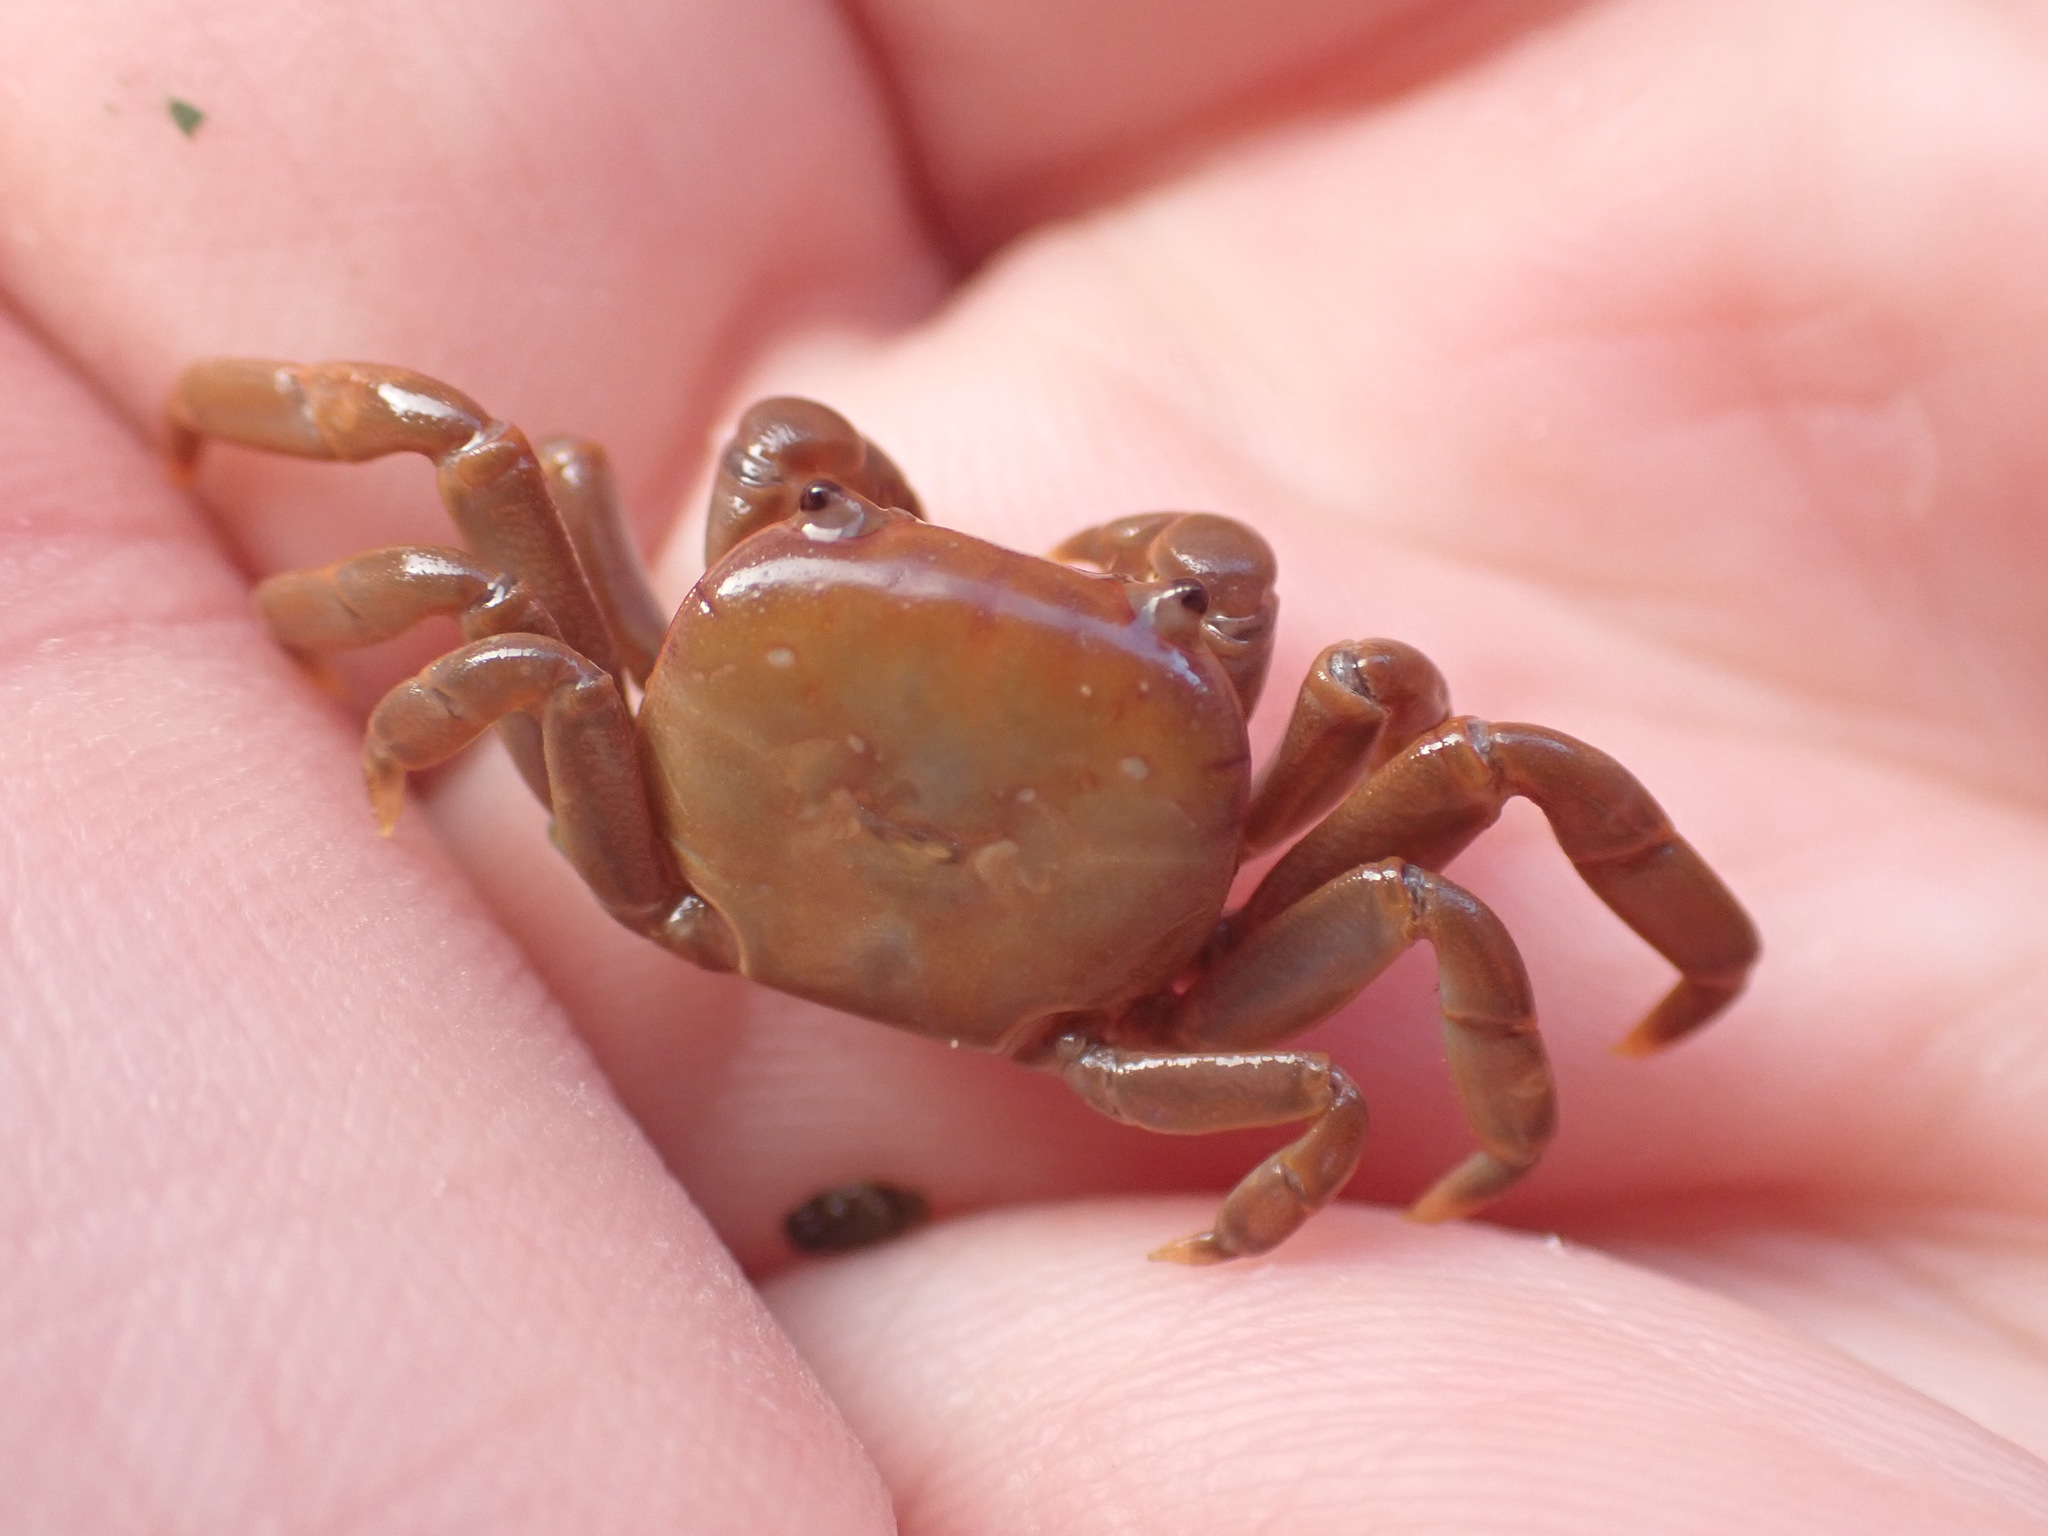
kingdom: Animalia
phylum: Arthropoda
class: Malacostraca
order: Decapoda
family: Varunidae
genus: Cyclograpsus
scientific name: Cyclograpsus insularum
